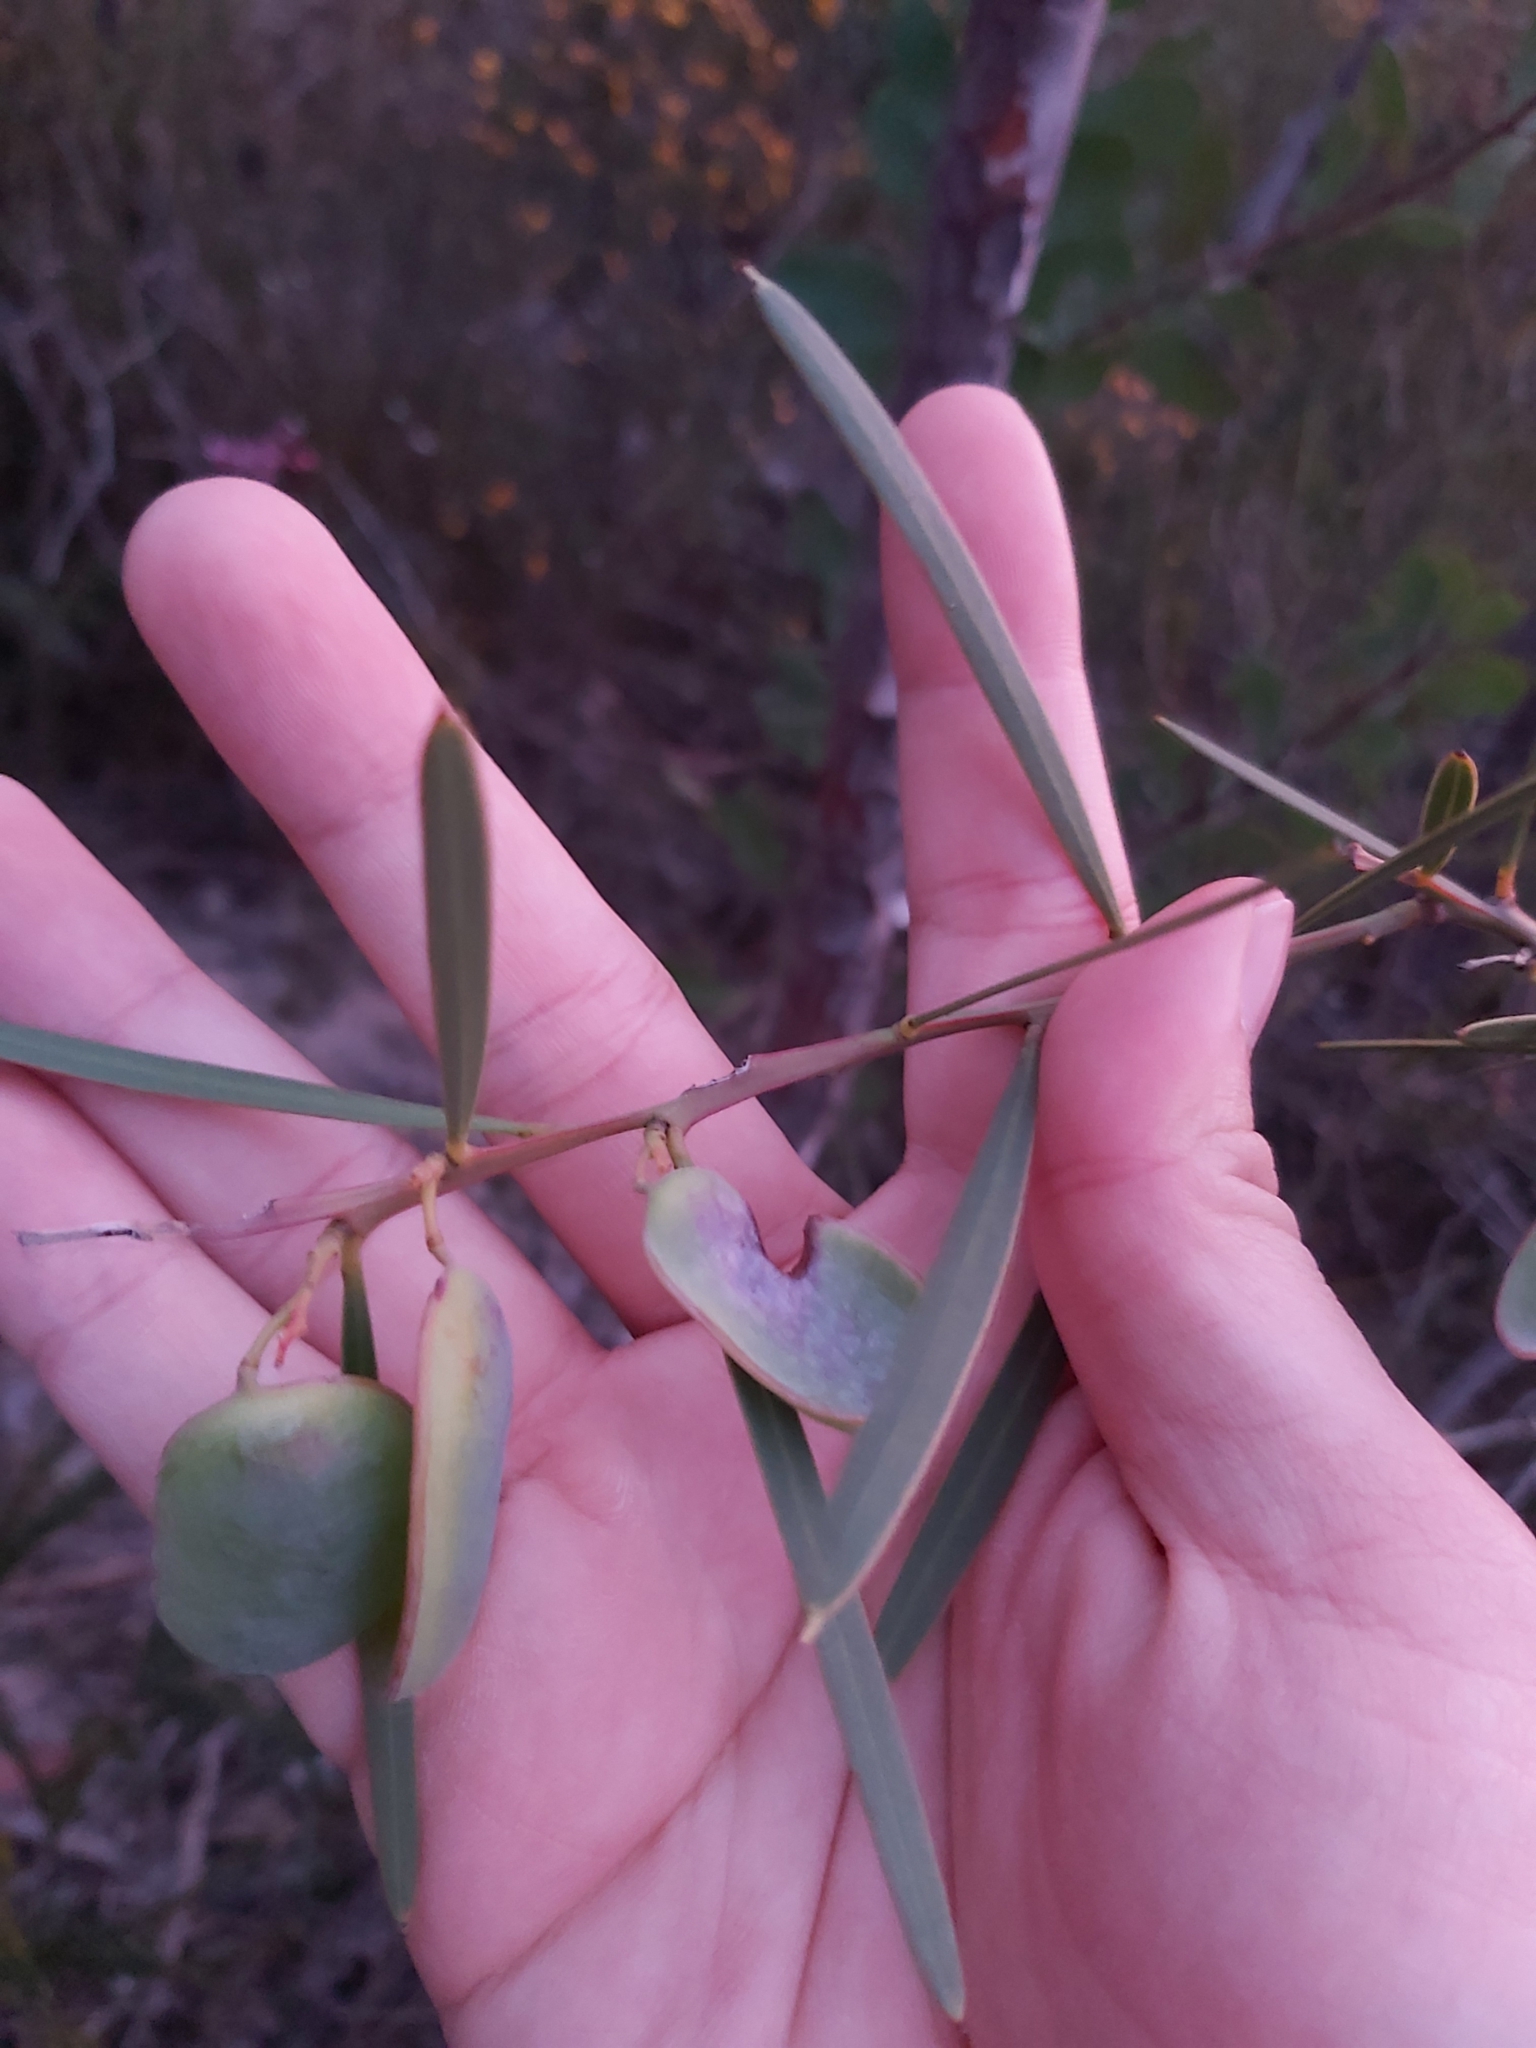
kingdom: Plantae
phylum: Tracheophyta
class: Magnoliopsida
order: Fabales
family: Fabaceae
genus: Acacia
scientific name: Acacia suaveolens
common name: Sweet acacia
